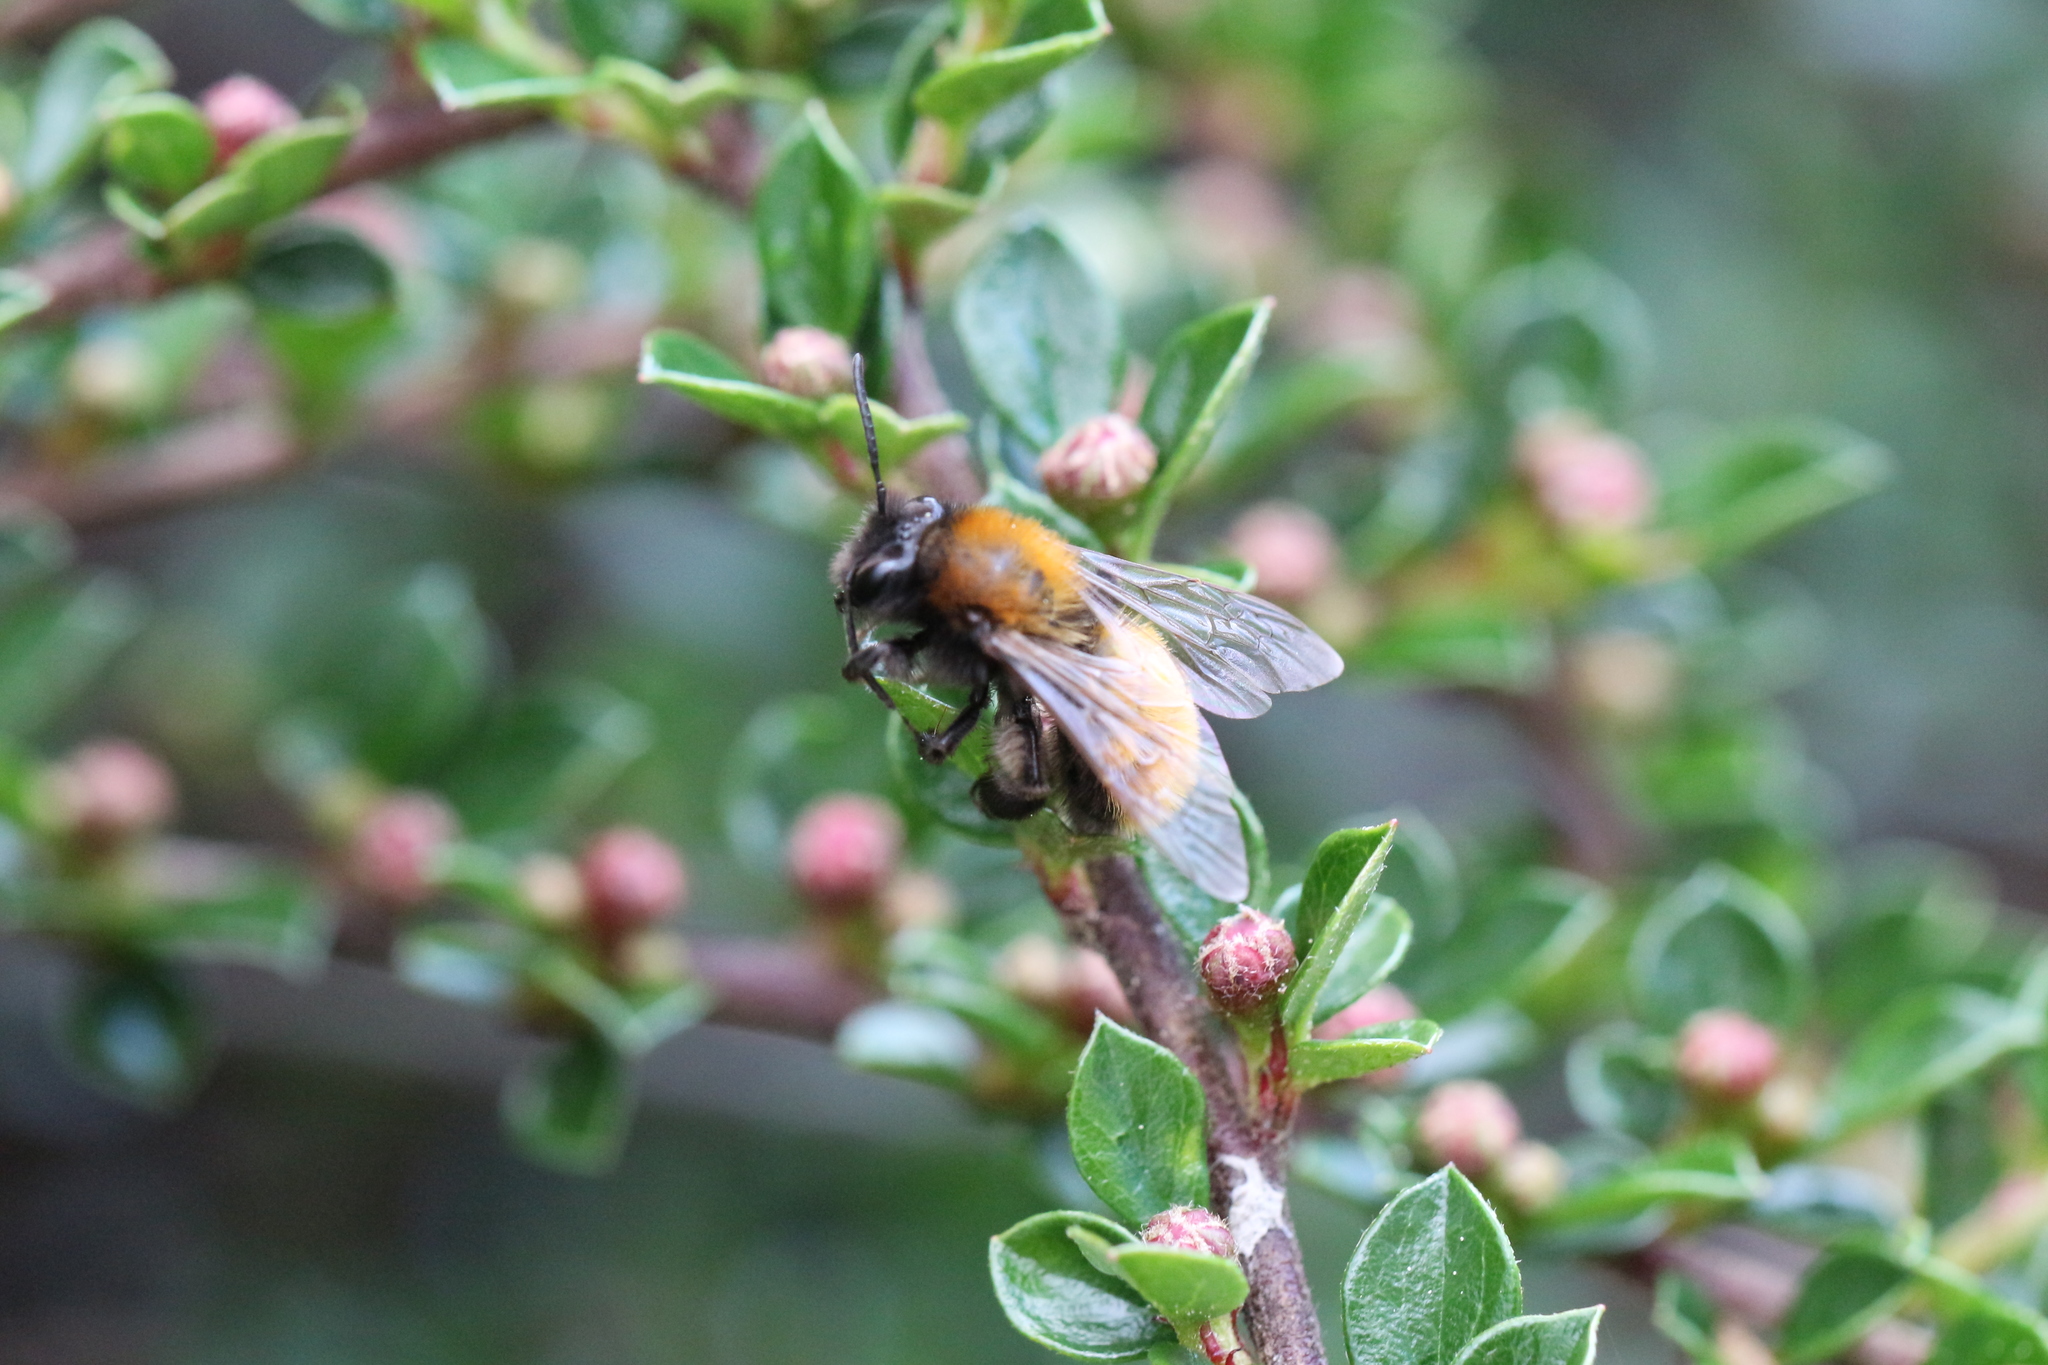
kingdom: Animalia
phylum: Arthropoda
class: Insecta
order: Hymenoptera
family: Andrenidae
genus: Andrena
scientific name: Andrena fulva
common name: Tawny mining bee
